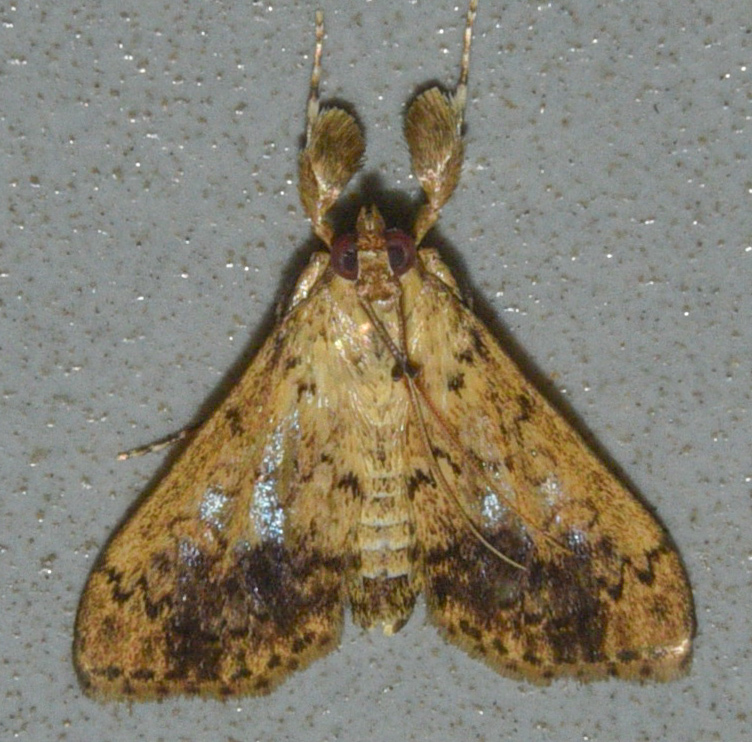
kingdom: Animalia
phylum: Arthropoda
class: Insecta
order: Lepidoptera
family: Crambidae
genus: Asciodes
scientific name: Asciodes gordialis
